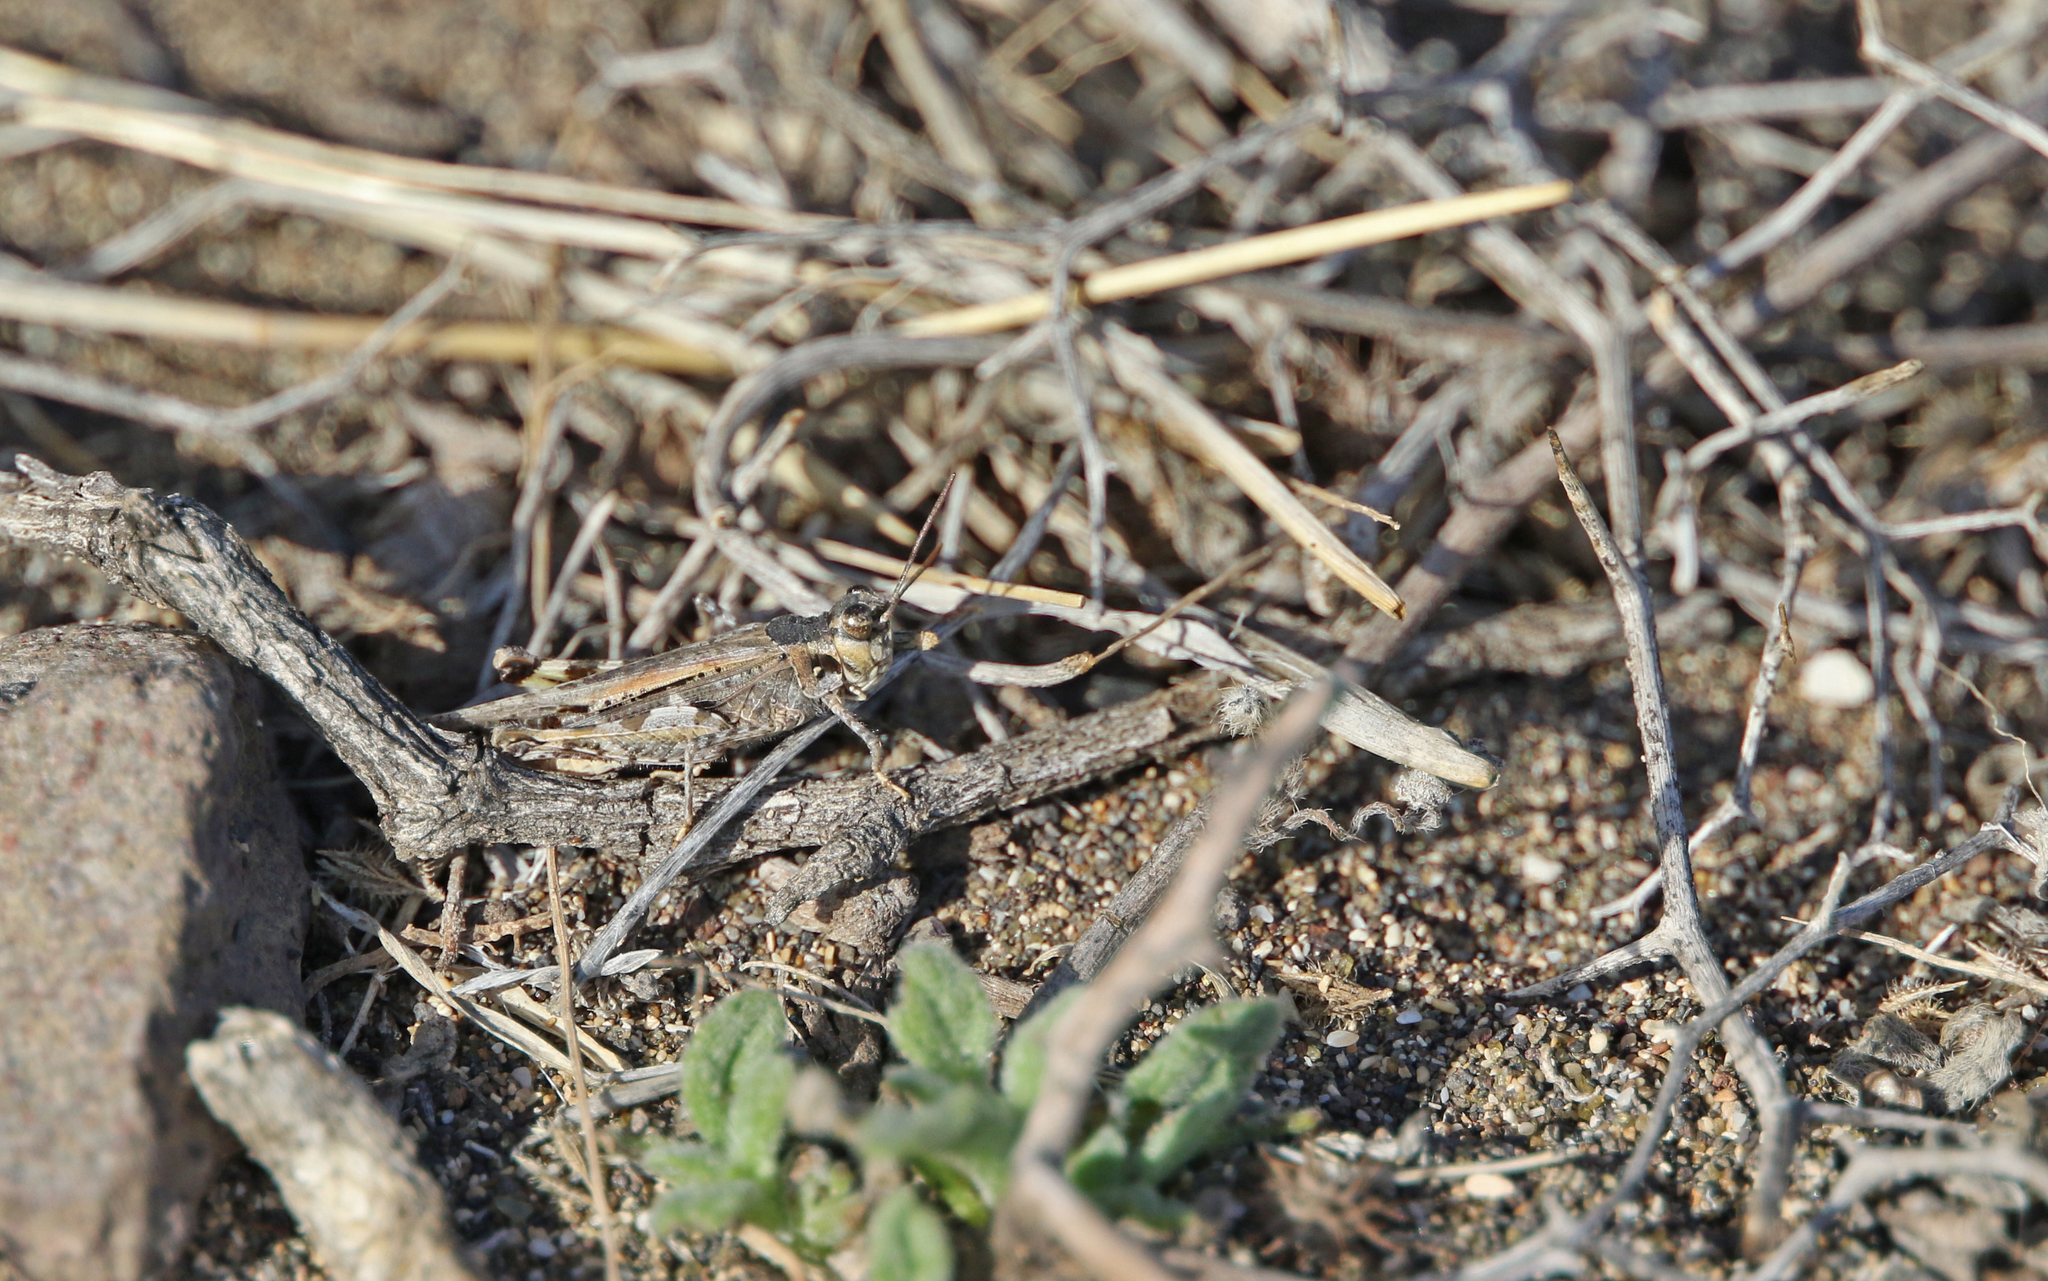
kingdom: Animalia
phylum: Arthropoda
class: Insecta
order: Orthoptera
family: Acrididae
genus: Acrotylus
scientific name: Acrotylus insubricus
